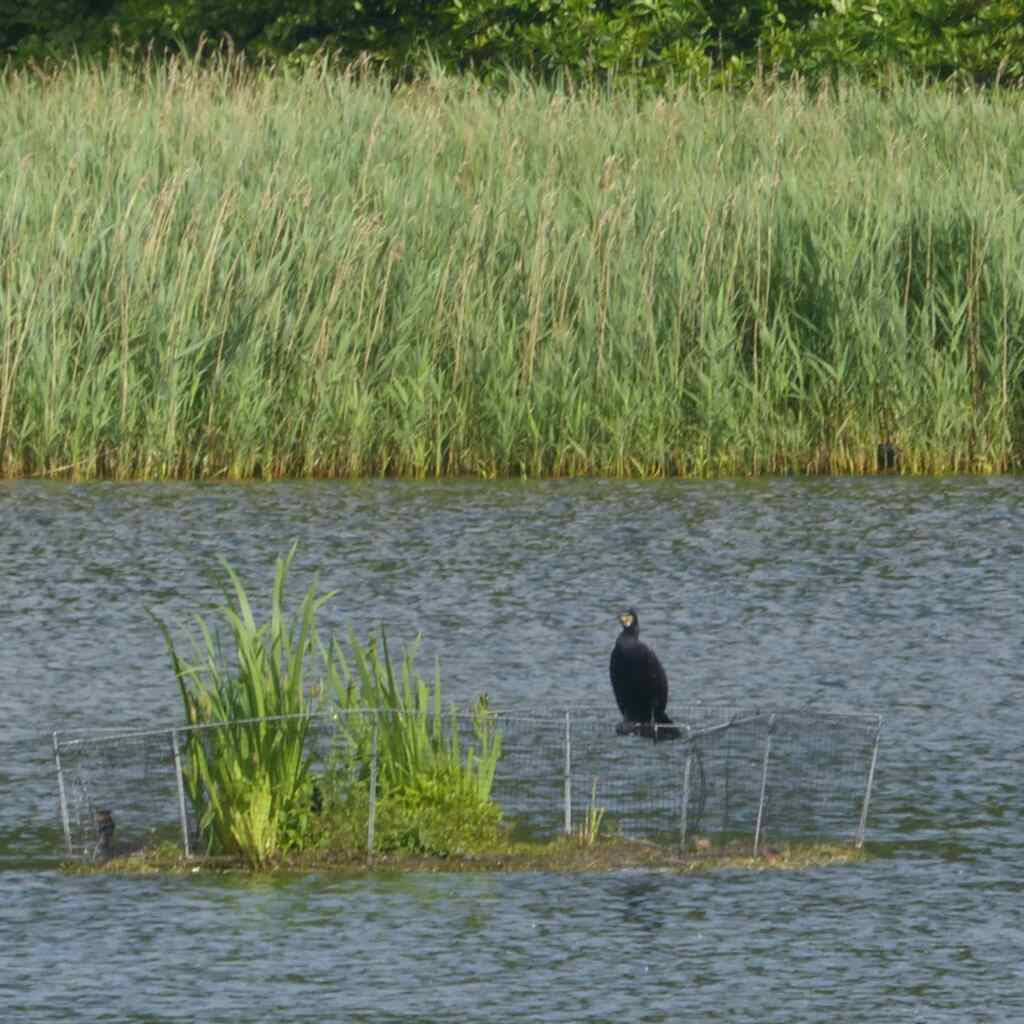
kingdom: Animalia
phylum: Chordata
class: Aves
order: Suliformes
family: Phalacrocoracidae
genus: Phalacrocorax
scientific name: Phalacrocorax carbo
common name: Great cormorant
